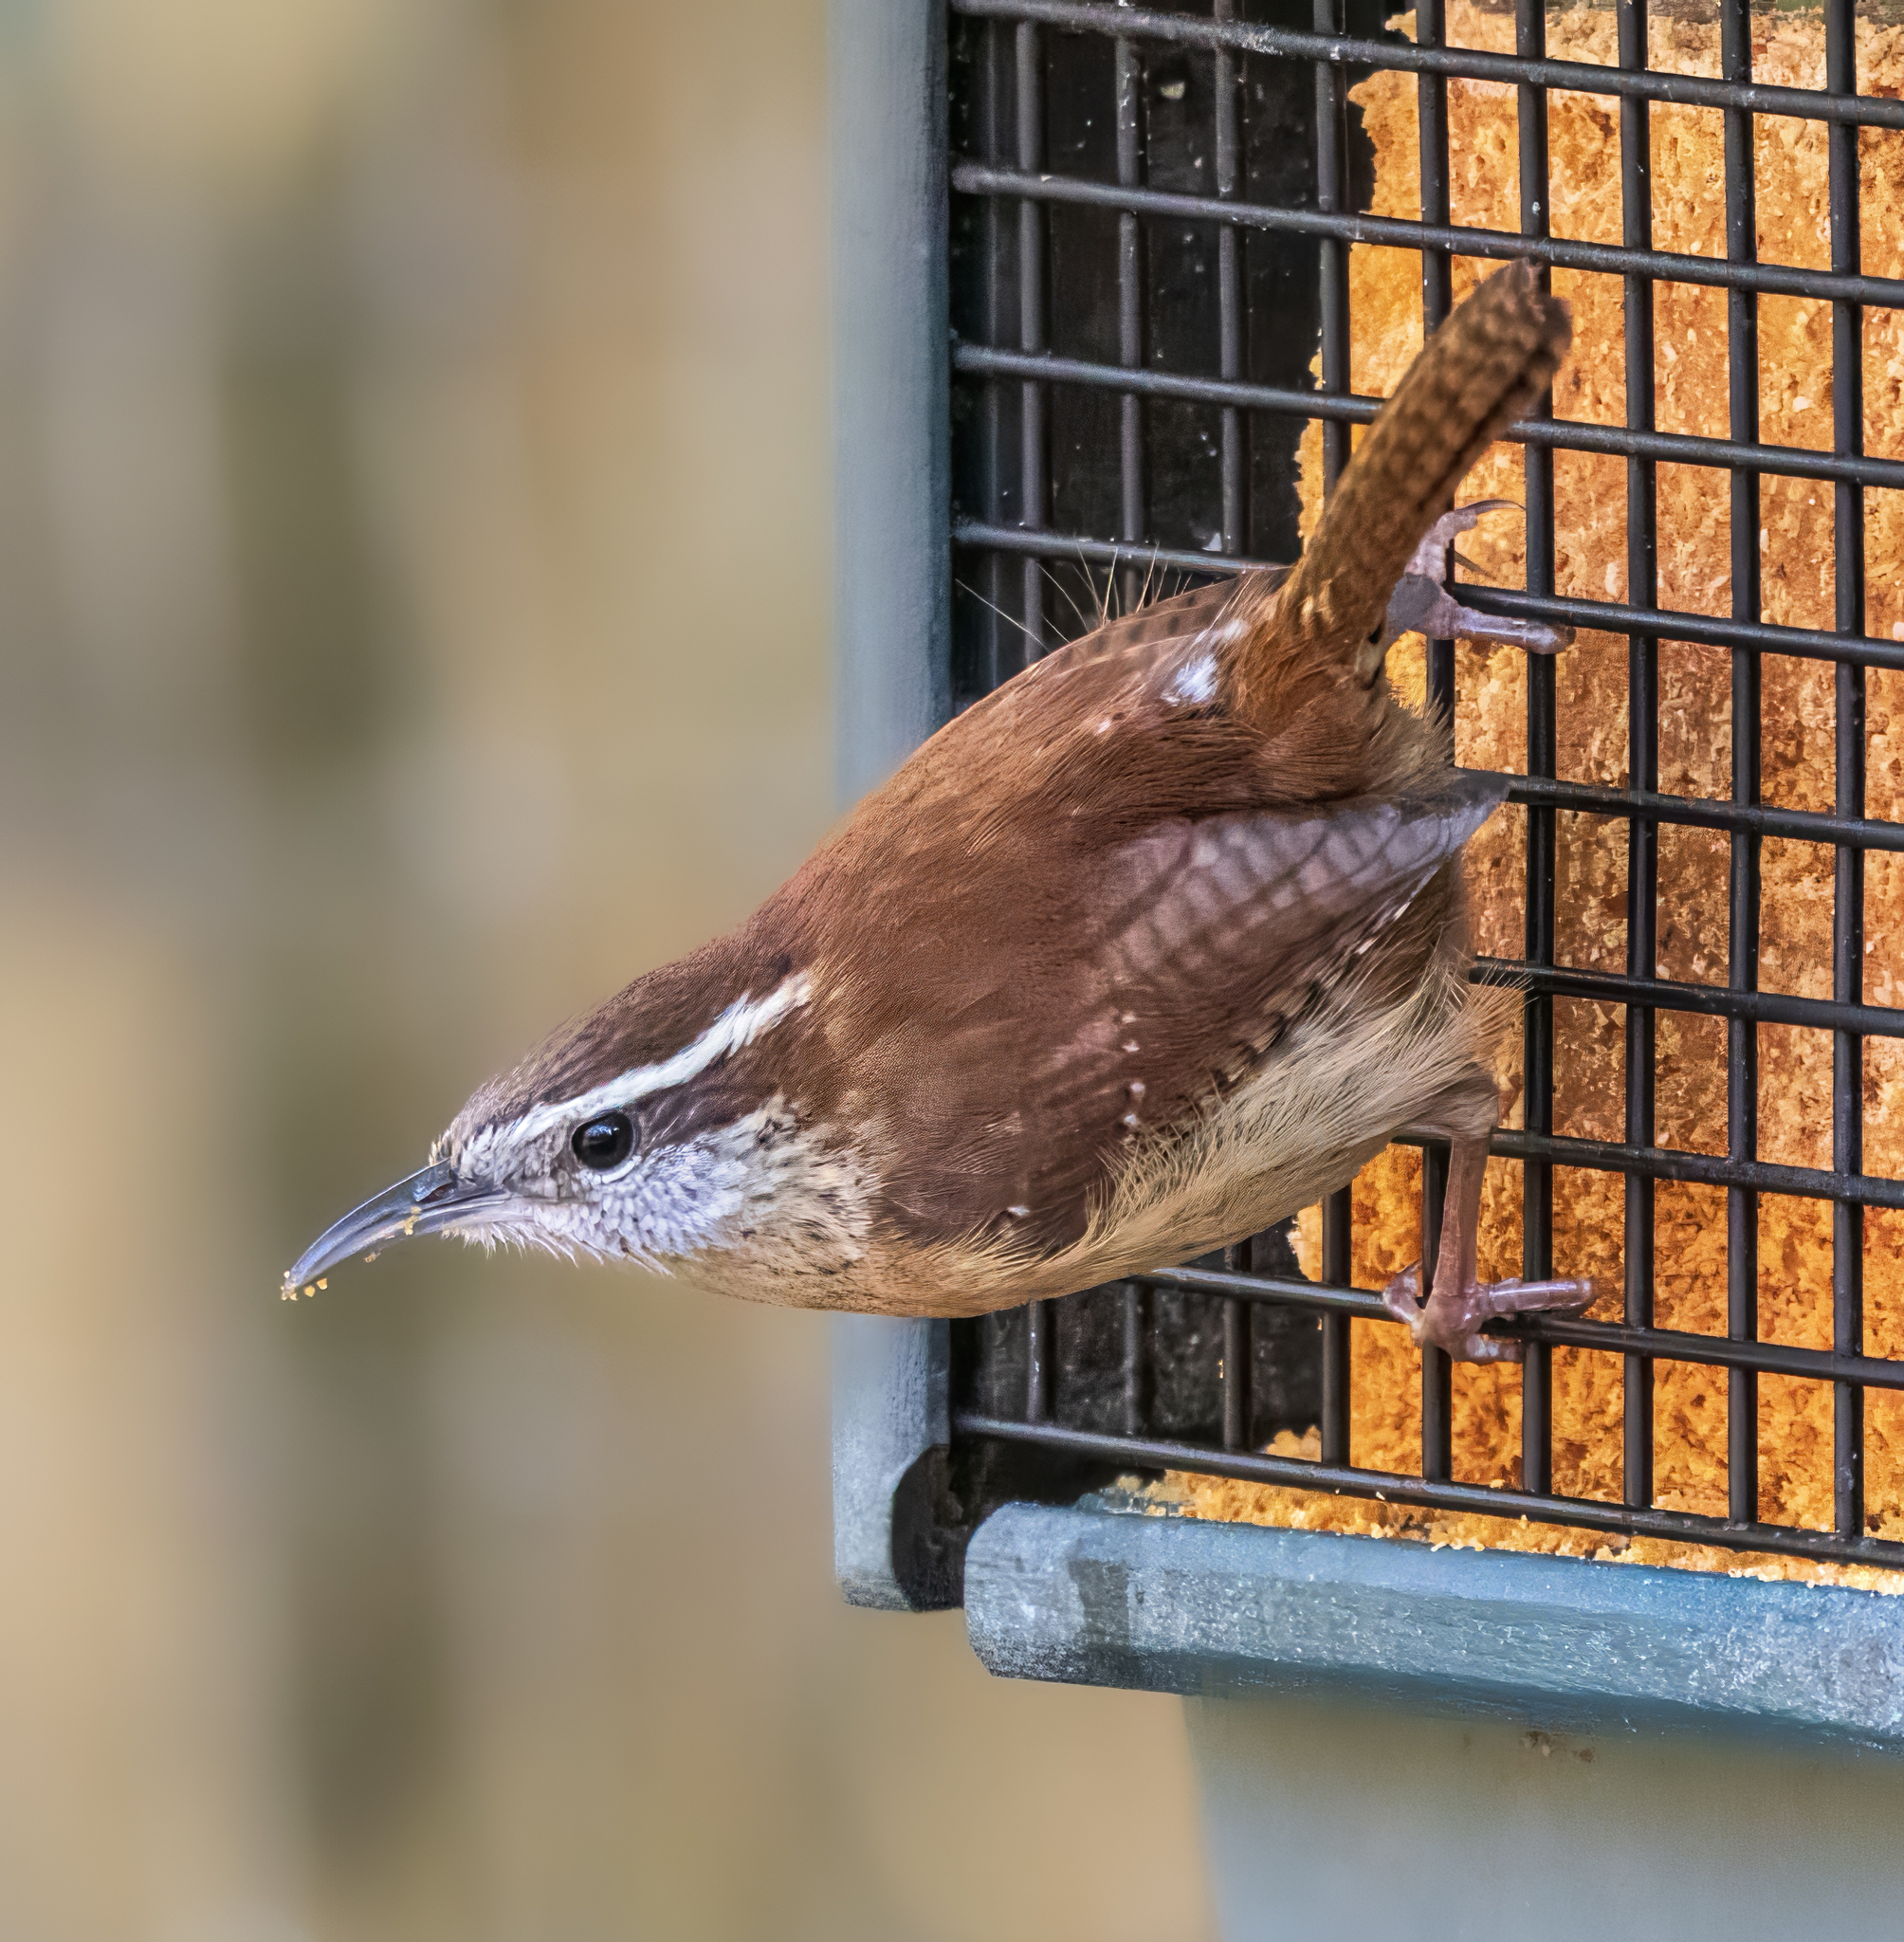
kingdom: Animalia
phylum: Chordata
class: Aves
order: Passeriformes
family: Troglodytidae
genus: Thryothorus
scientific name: Thryothorus ludovicianus
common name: Carolina wren
